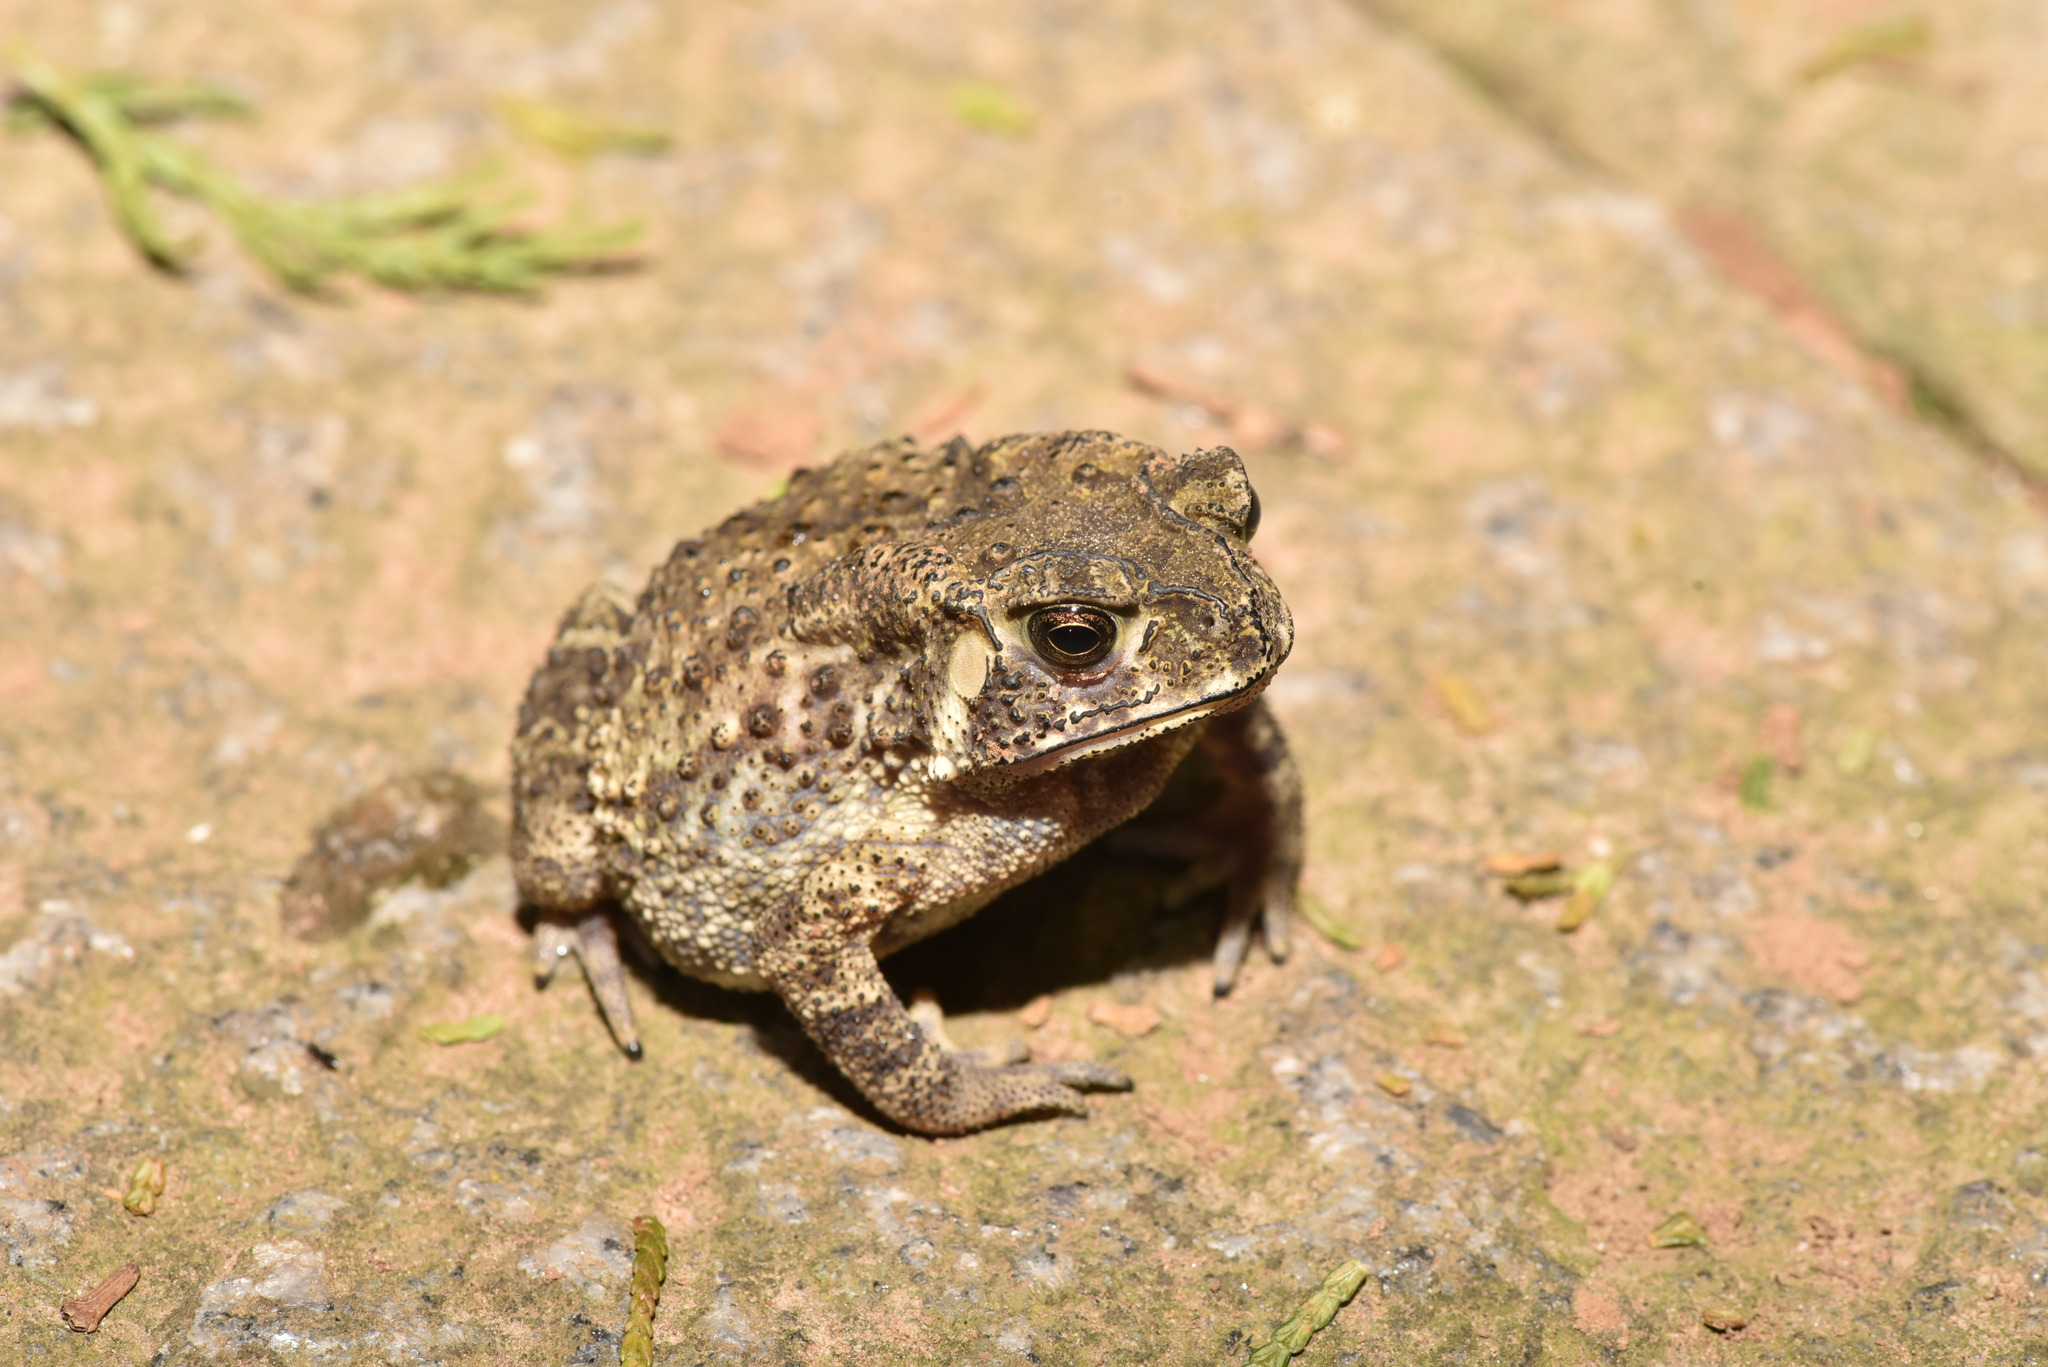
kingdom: Animalia
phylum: Chordata
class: Amphibia
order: Anura
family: Bufonidae
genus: Duttaphrynus
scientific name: Duttaphrynus melanostictus
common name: Common sunda toad
